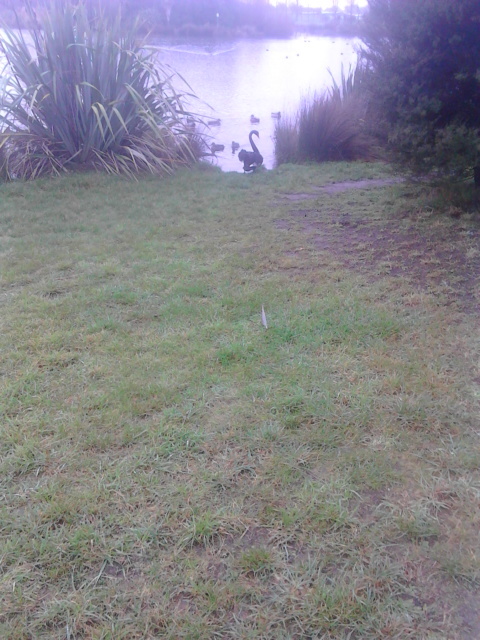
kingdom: Animalia
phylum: Chordata
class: Aves
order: Anseriformes
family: Anatidae
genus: Cygnus
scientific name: Cygnus atratus
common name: Black swan
